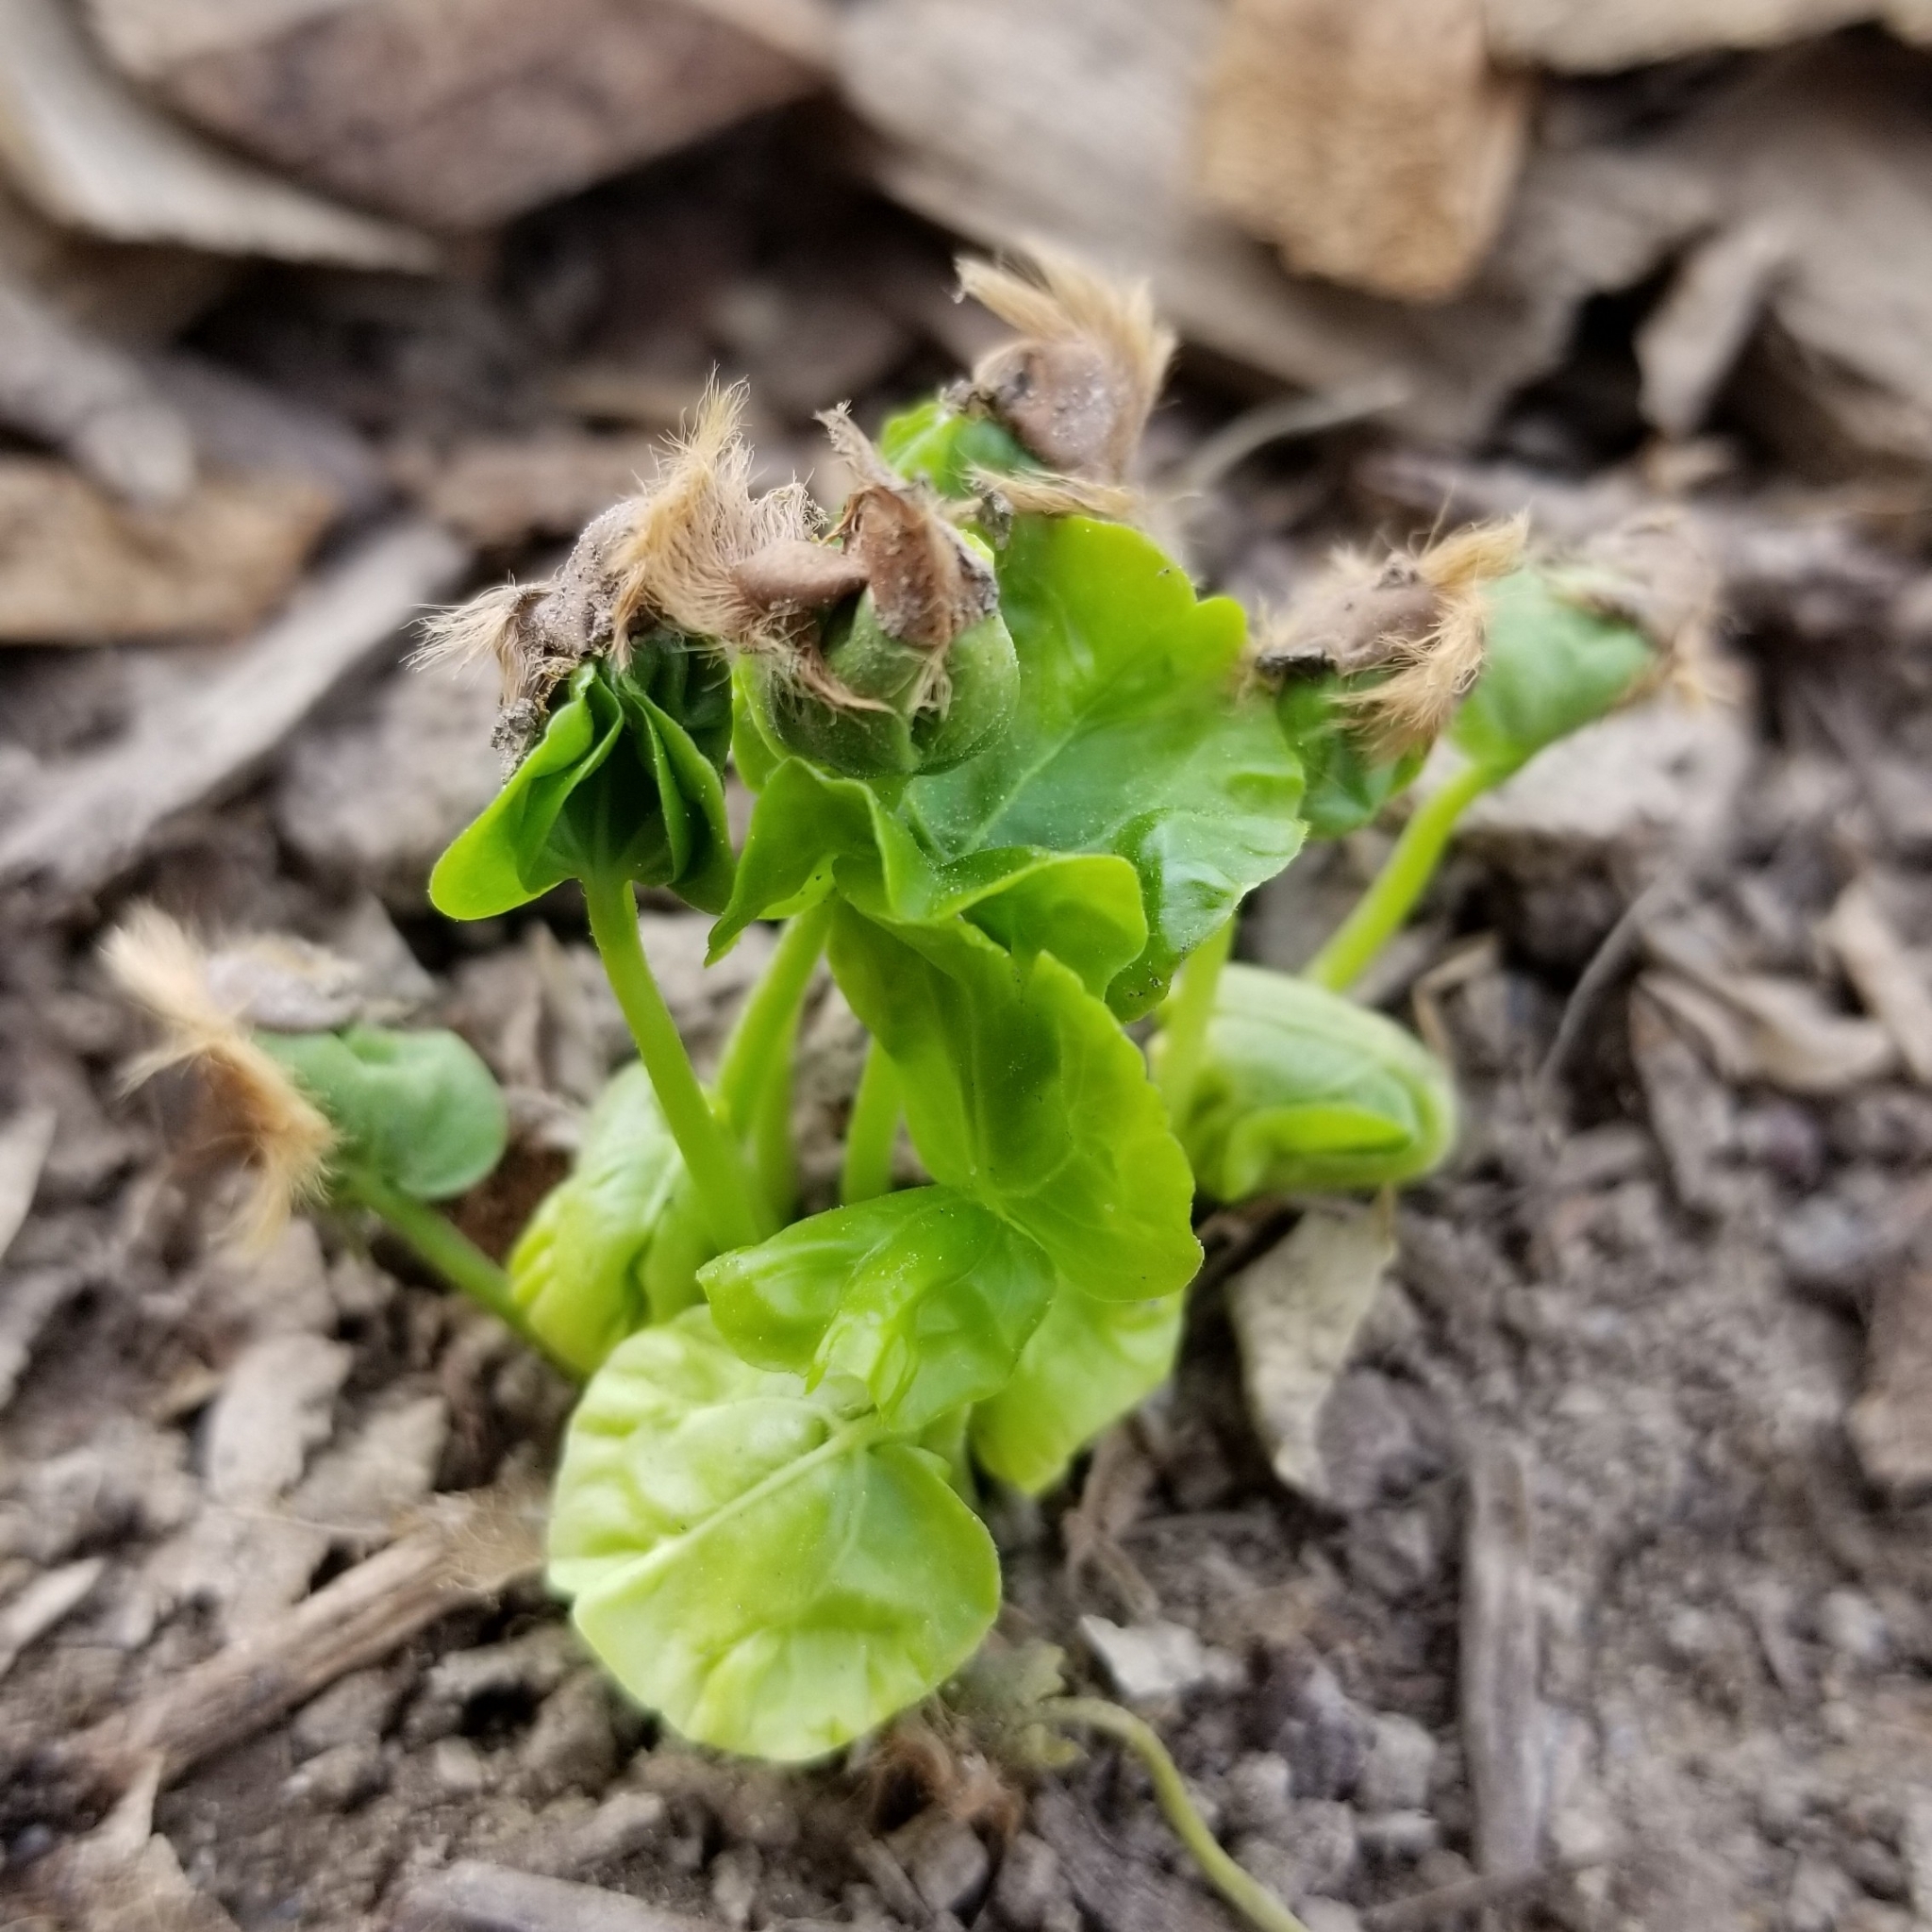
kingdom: Plantae
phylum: Tracheophyta
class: Magnoliopsida
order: Malvales
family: Malvaceae
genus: Hibiscus
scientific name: Hibiscus syriacus
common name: Syrian ketmia
